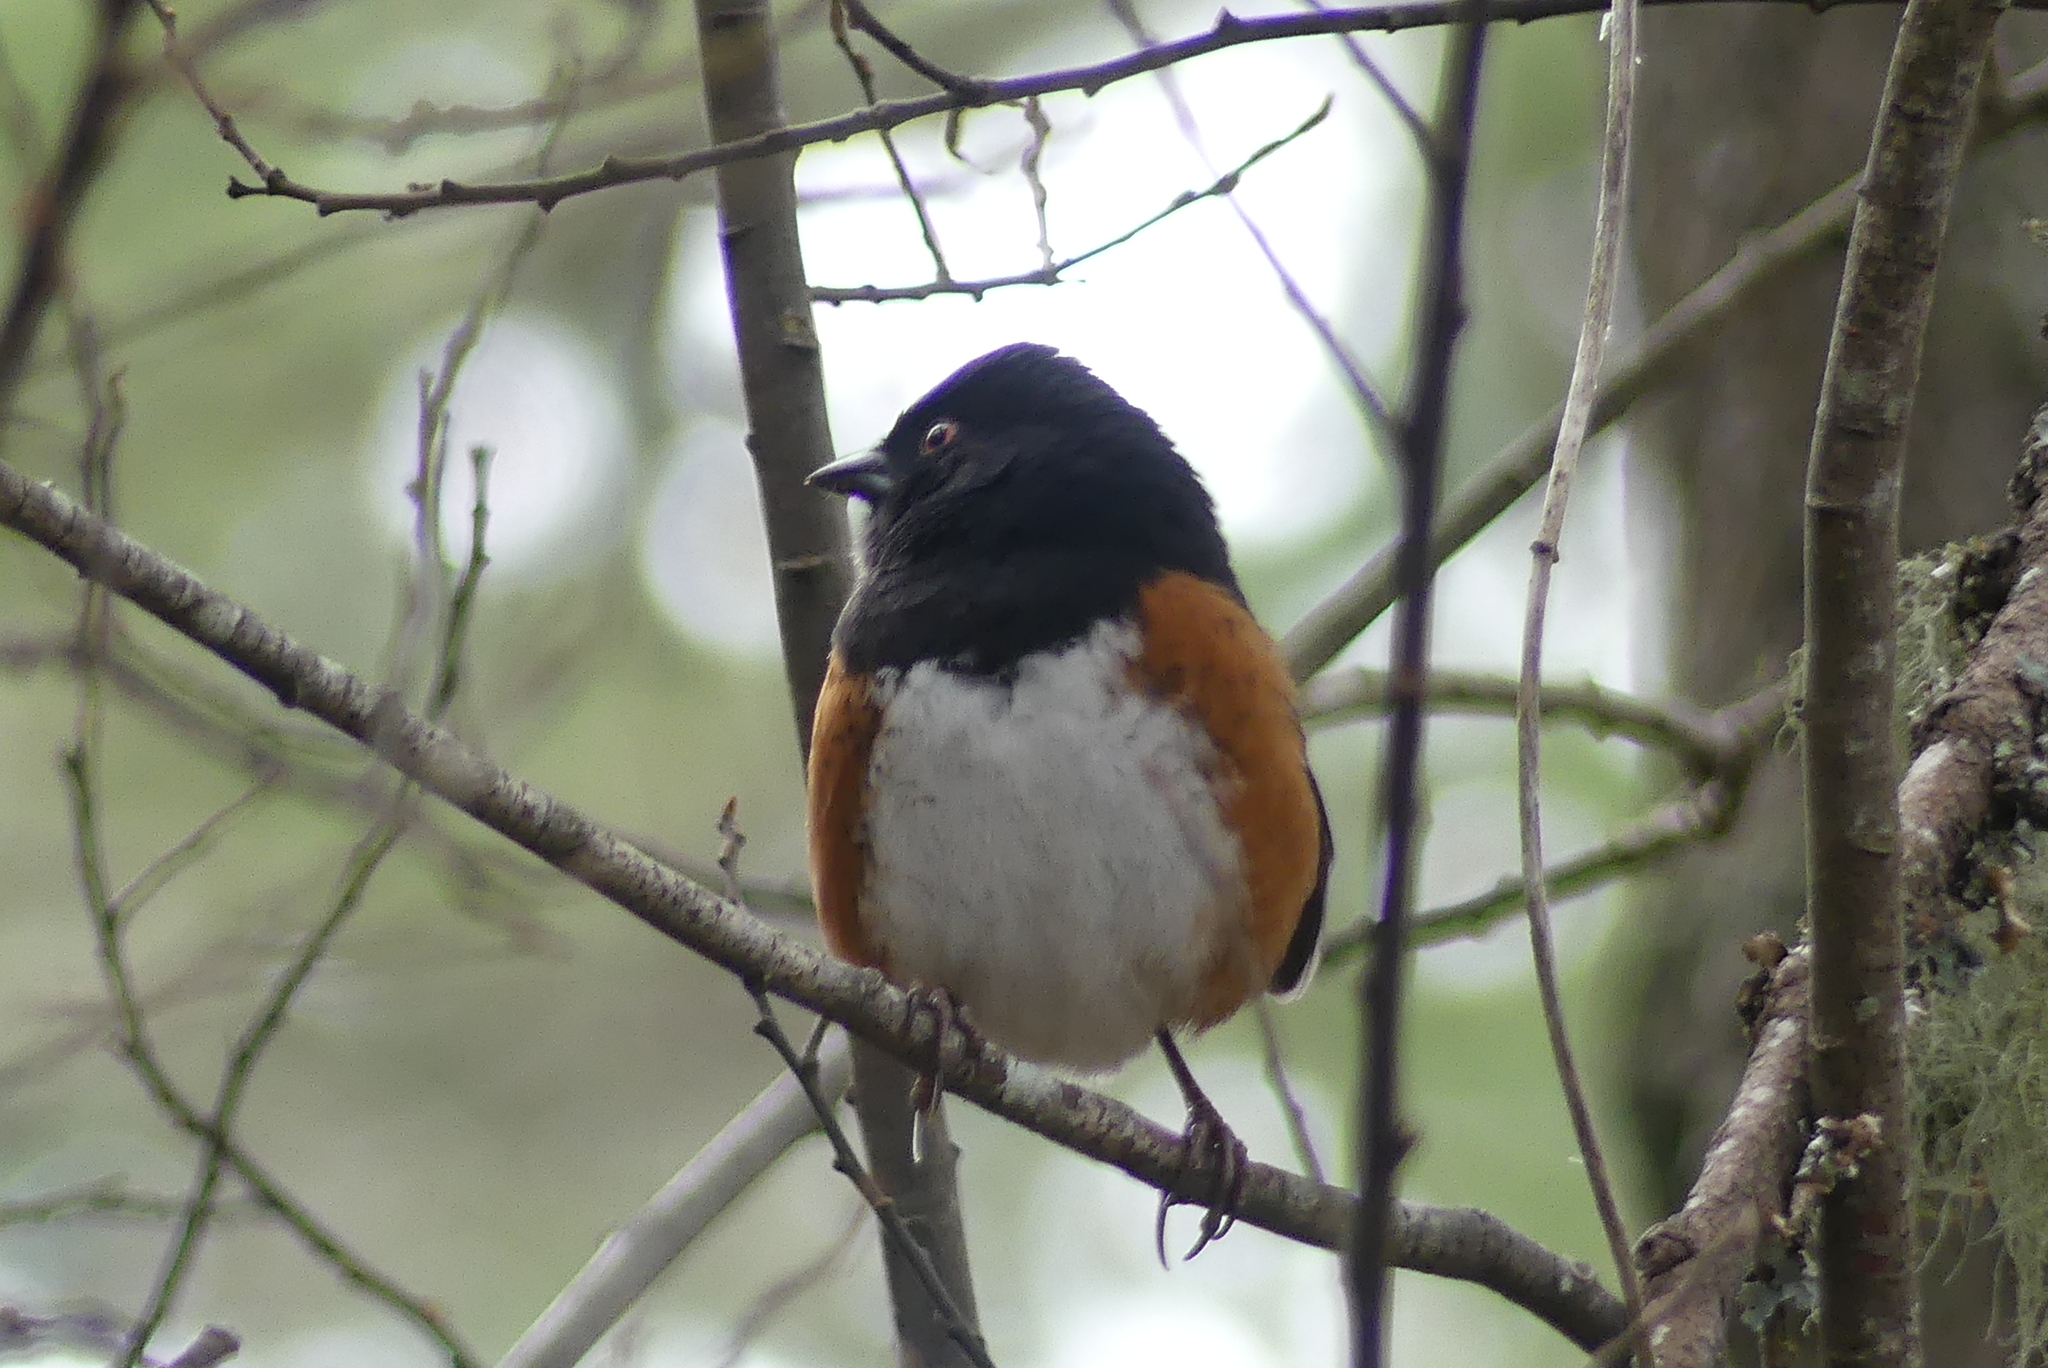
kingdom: Animalia
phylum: Chordata
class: Aves
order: Passeriformes
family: Passerellidae
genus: Pipilo
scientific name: Pipilo maculatus
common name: Spotted towhee
